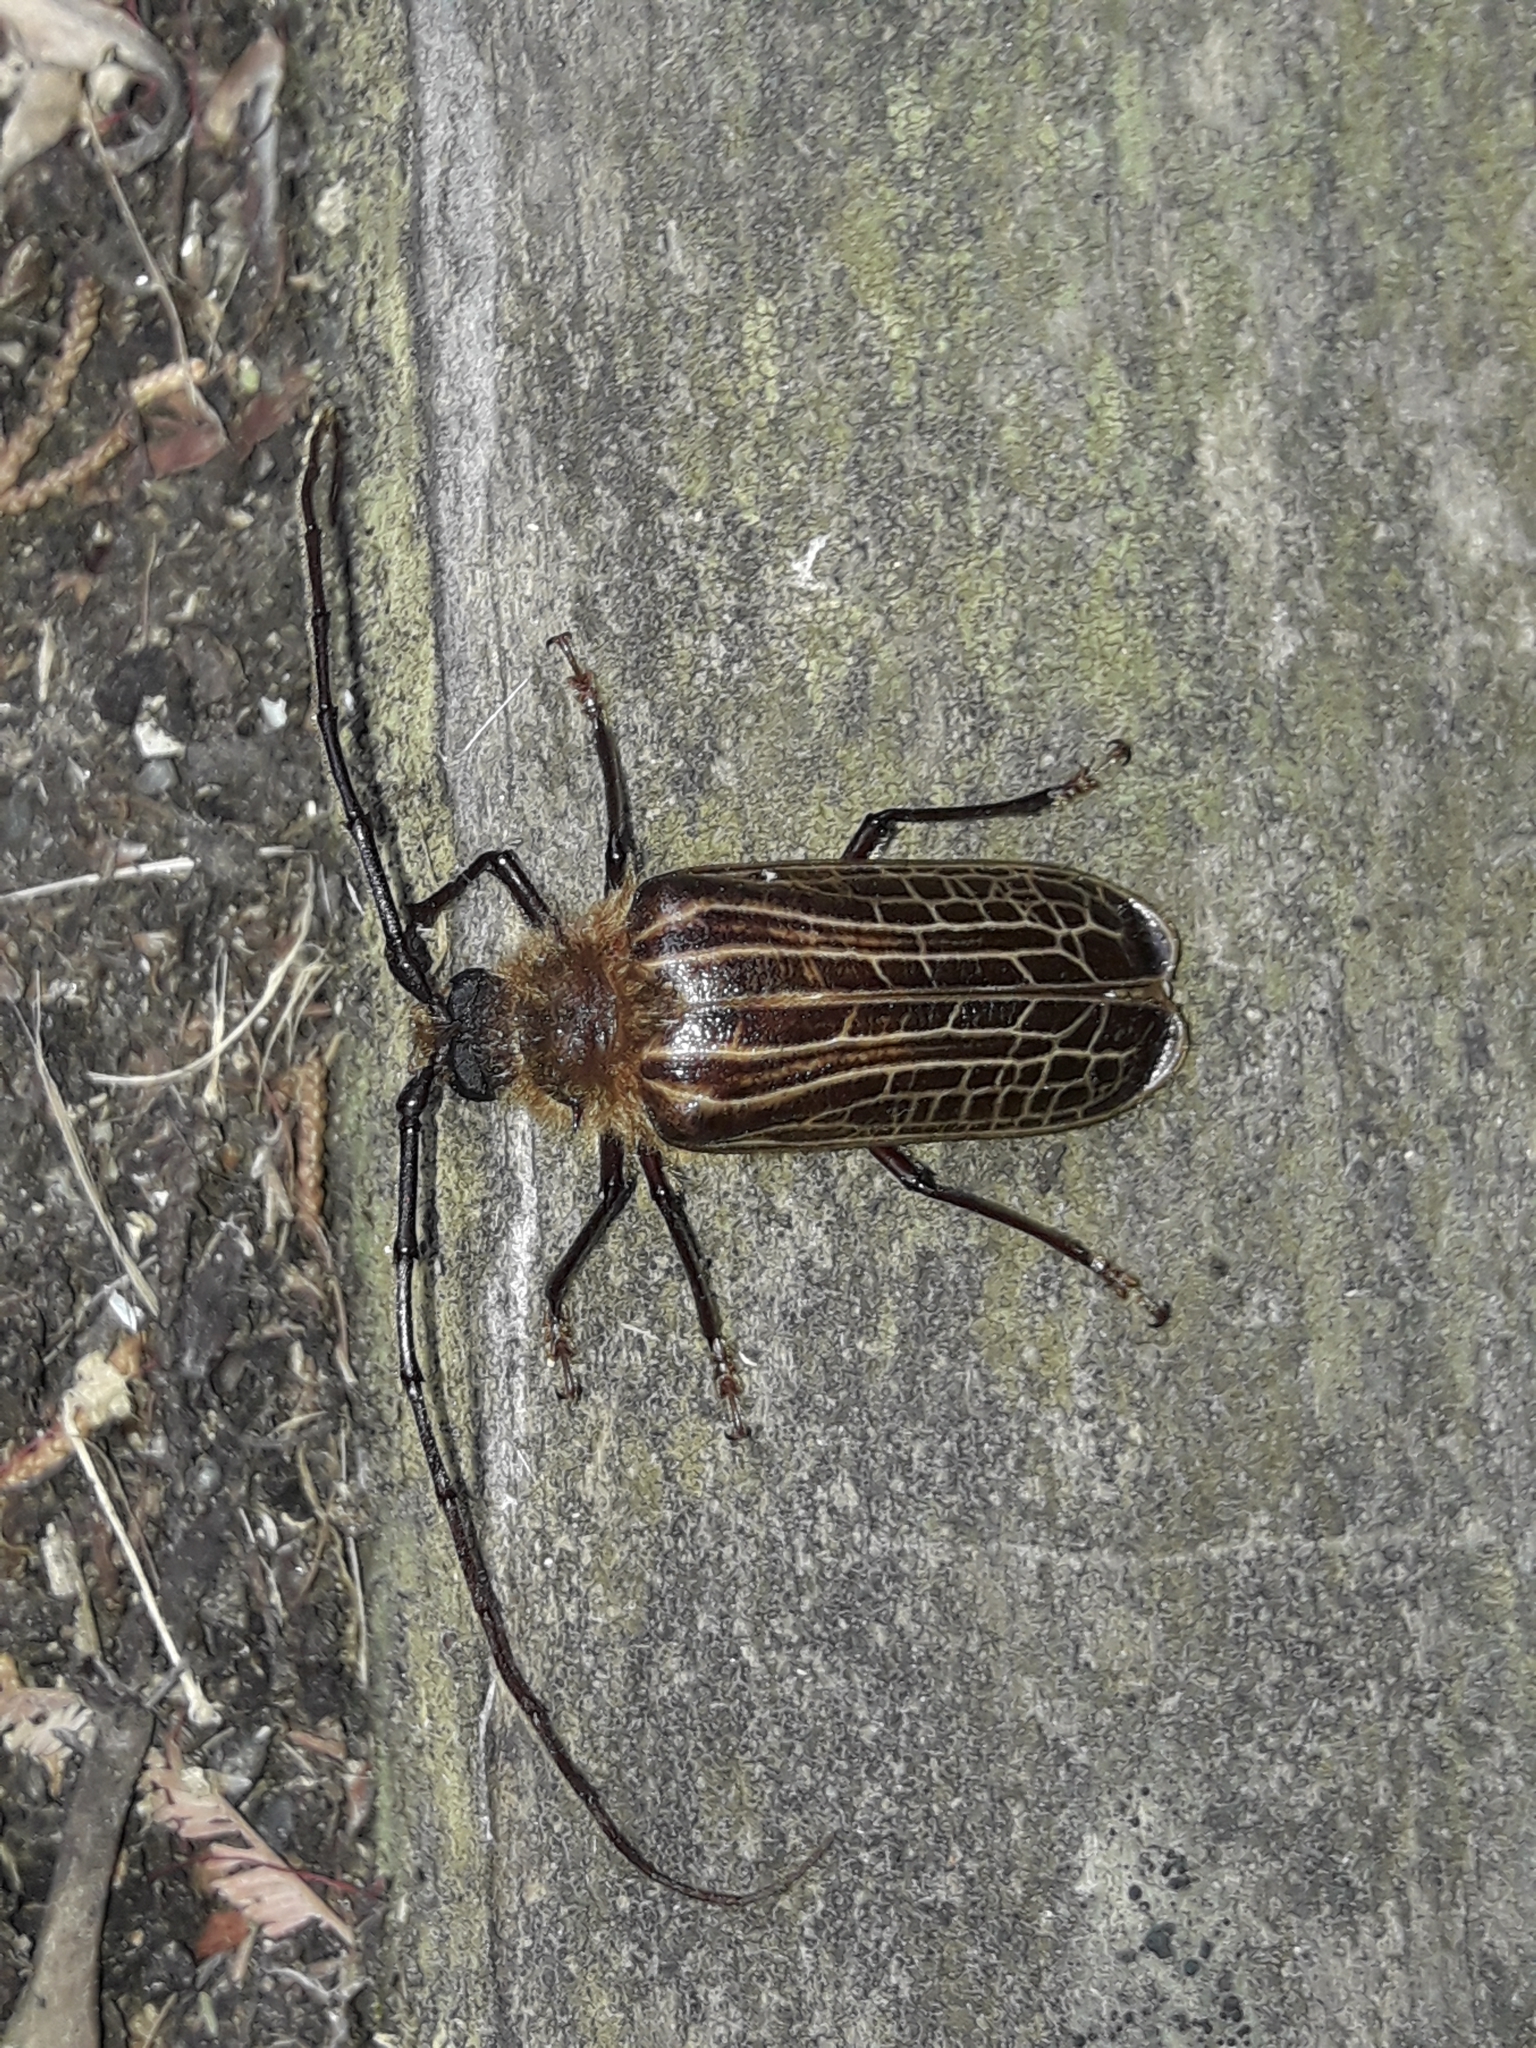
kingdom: Animalia
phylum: Arthropoda
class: Insecta
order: Coleoptera
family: Cerambycidae
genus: Prionoplus
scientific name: Prionoplus reticularis
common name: Huhu beetle
